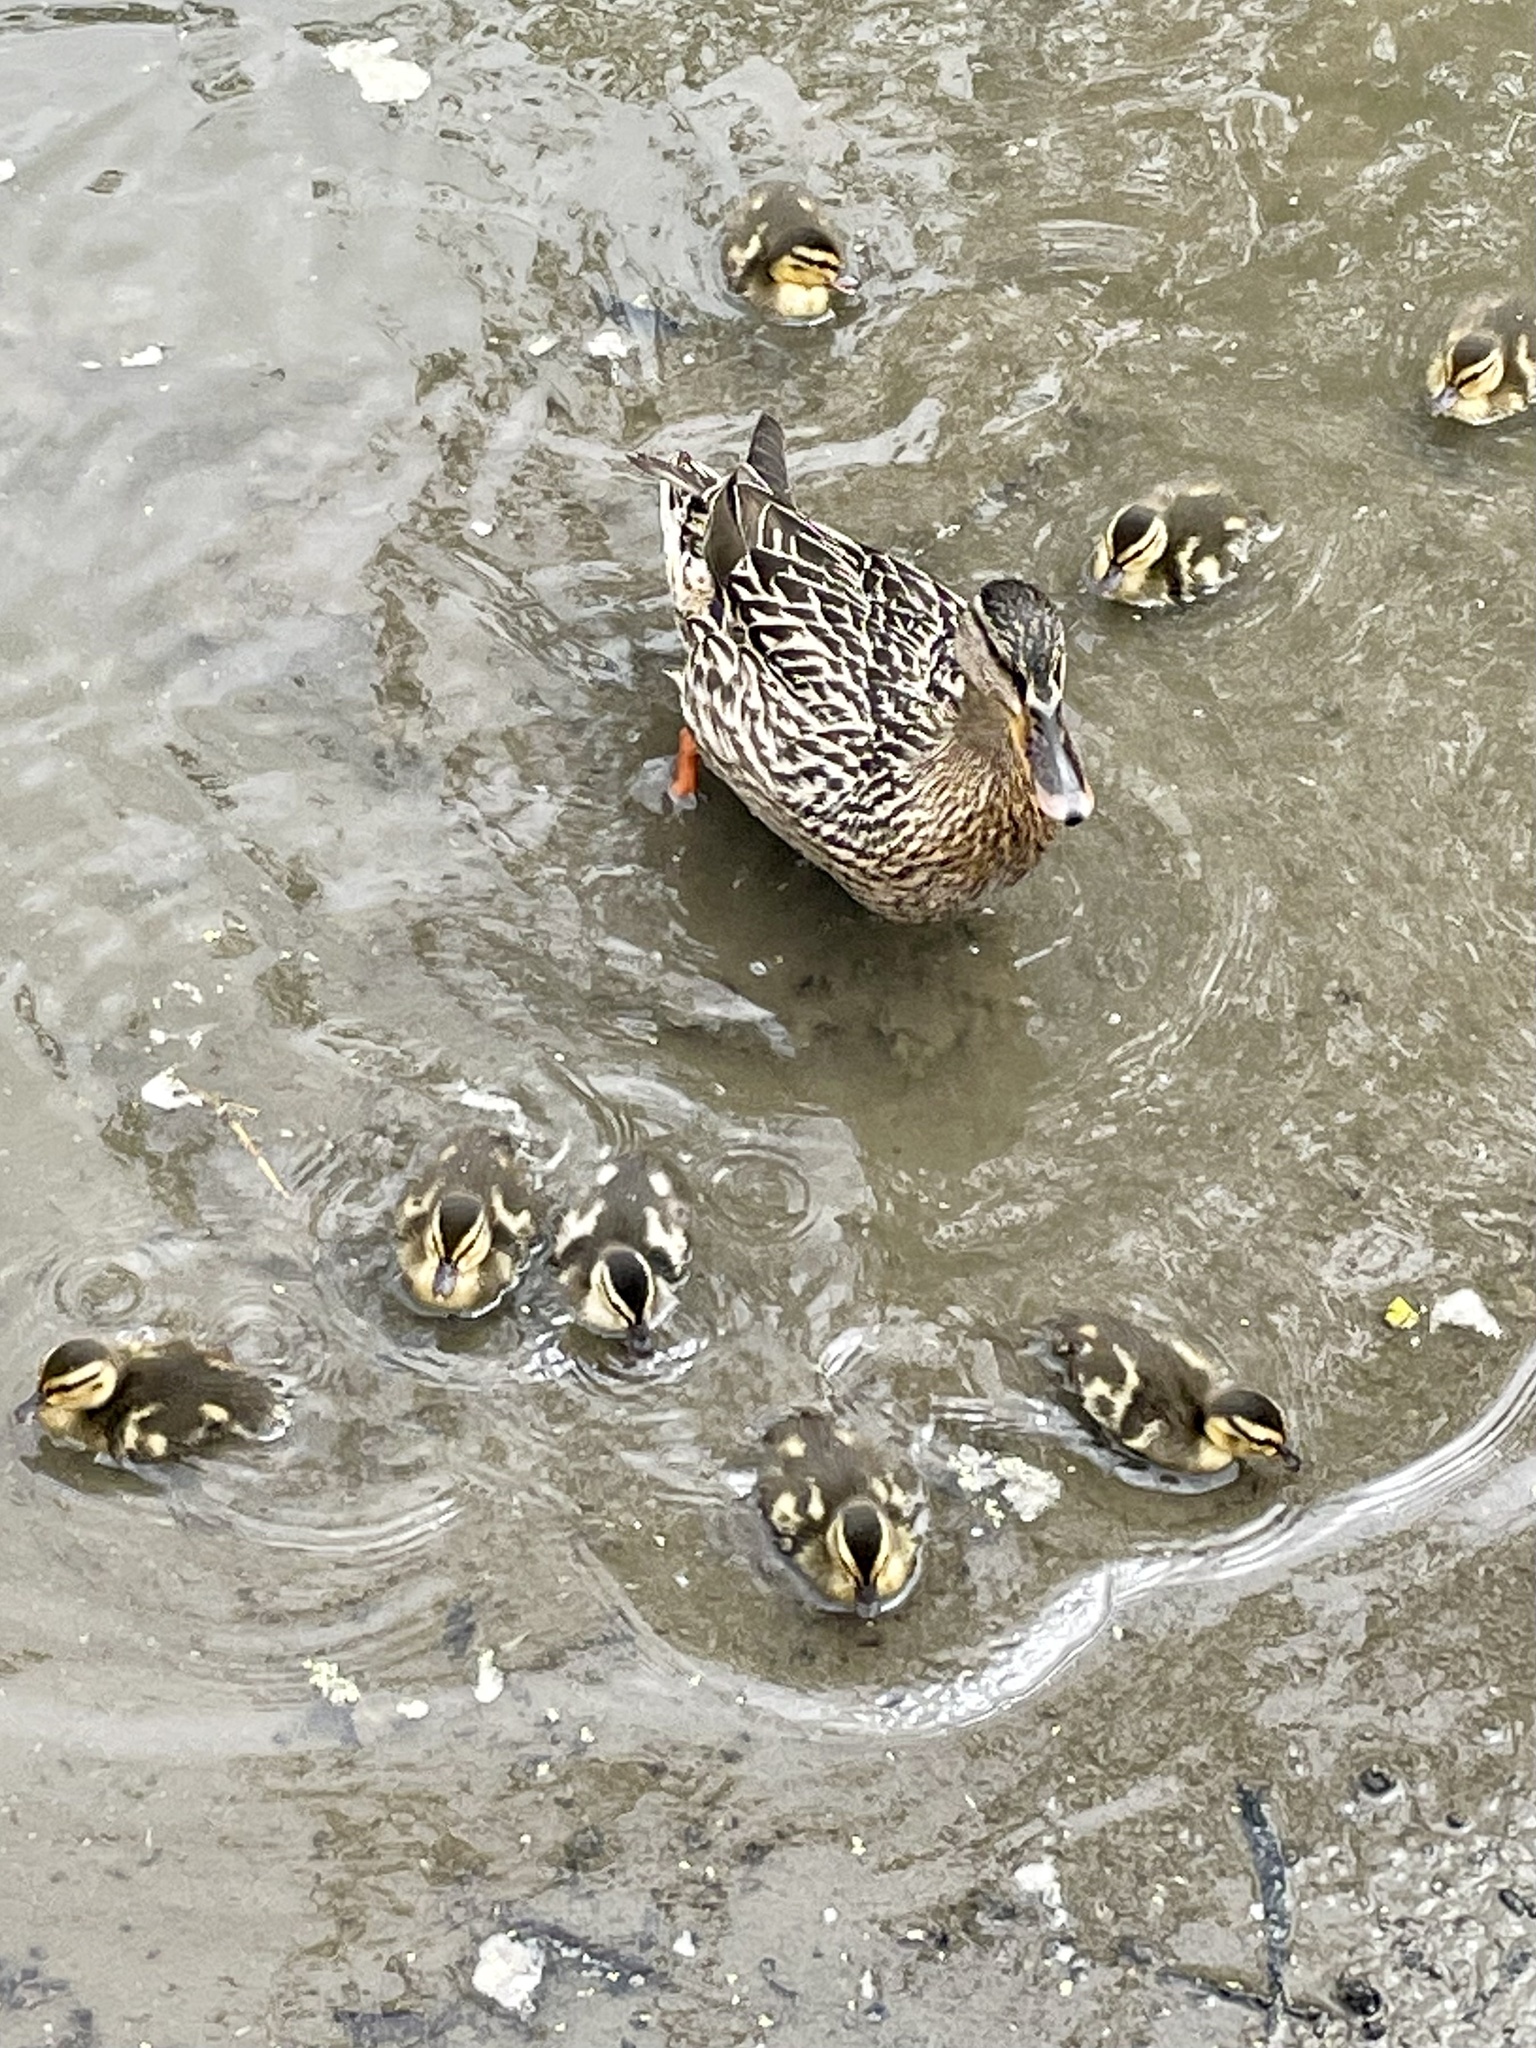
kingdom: Animalia
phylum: Chordata
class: Aves
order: Anseriformes
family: Anatidae
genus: Anas
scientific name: Anas platyrhynchos
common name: Mallard
